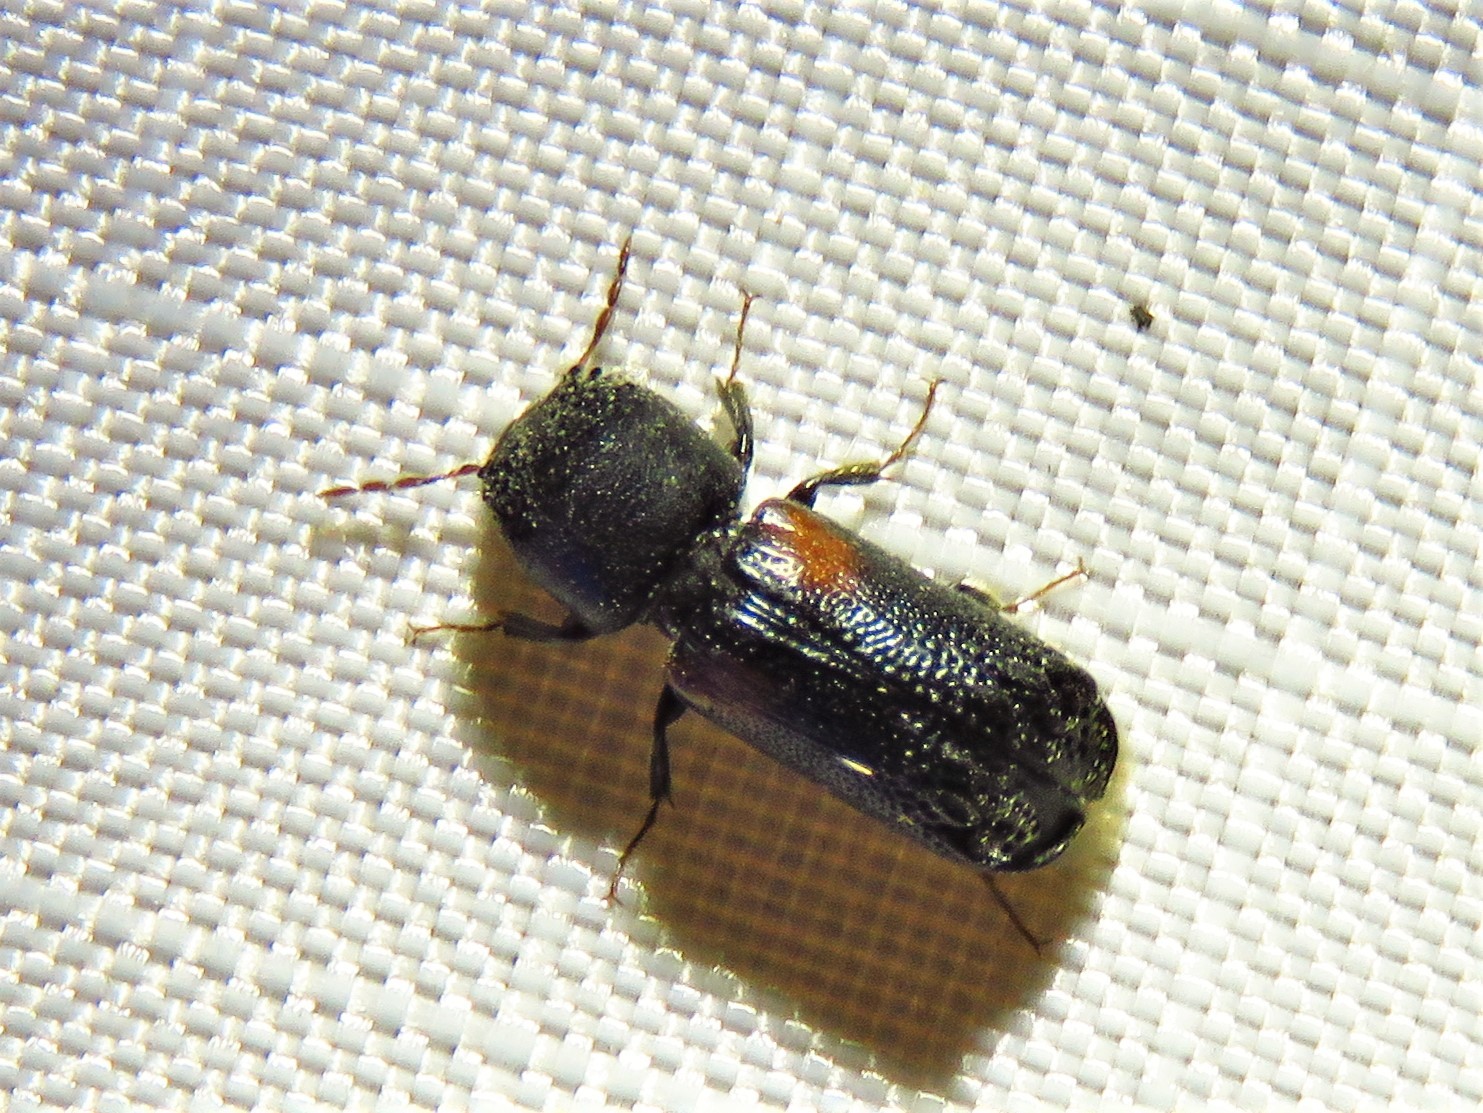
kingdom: Animalia
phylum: Arthropoda
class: Insecta
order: Coleoptera
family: Bostrichidae
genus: Xylobiops
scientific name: Xylobiops basilaris
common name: Red-shouldered bostrichid
